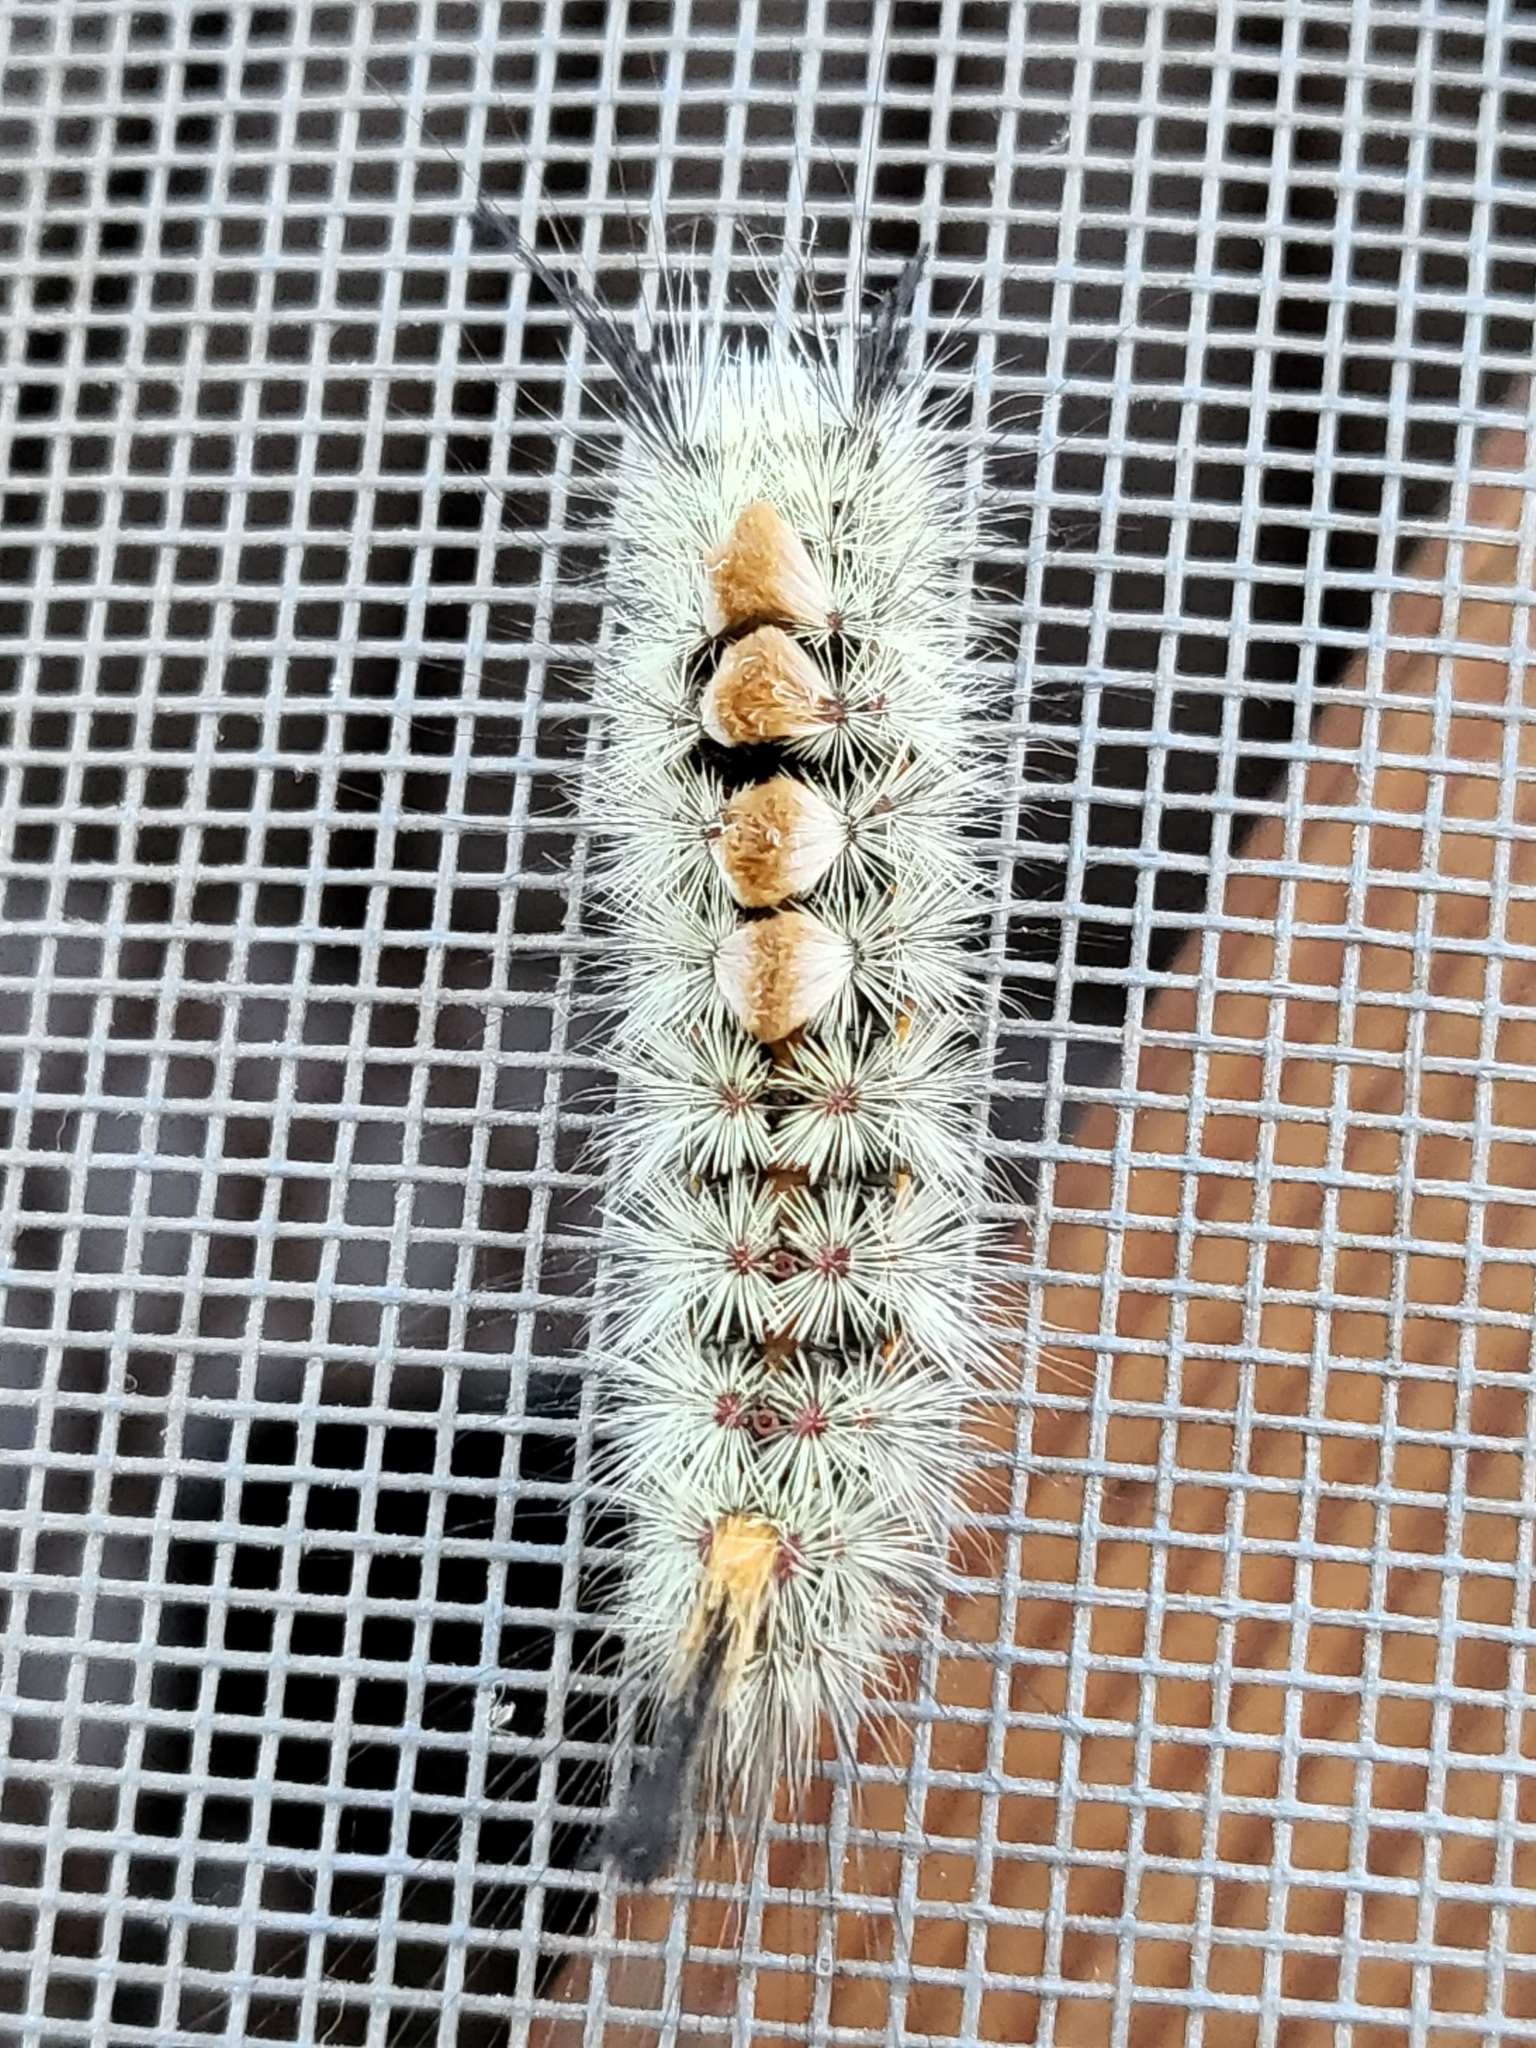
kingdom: Animalia
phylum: Arthropoda
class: Insecta
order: Lepidoptera
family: Erebidae
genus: Orgyia
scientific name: Orgyia pseudotsugata
